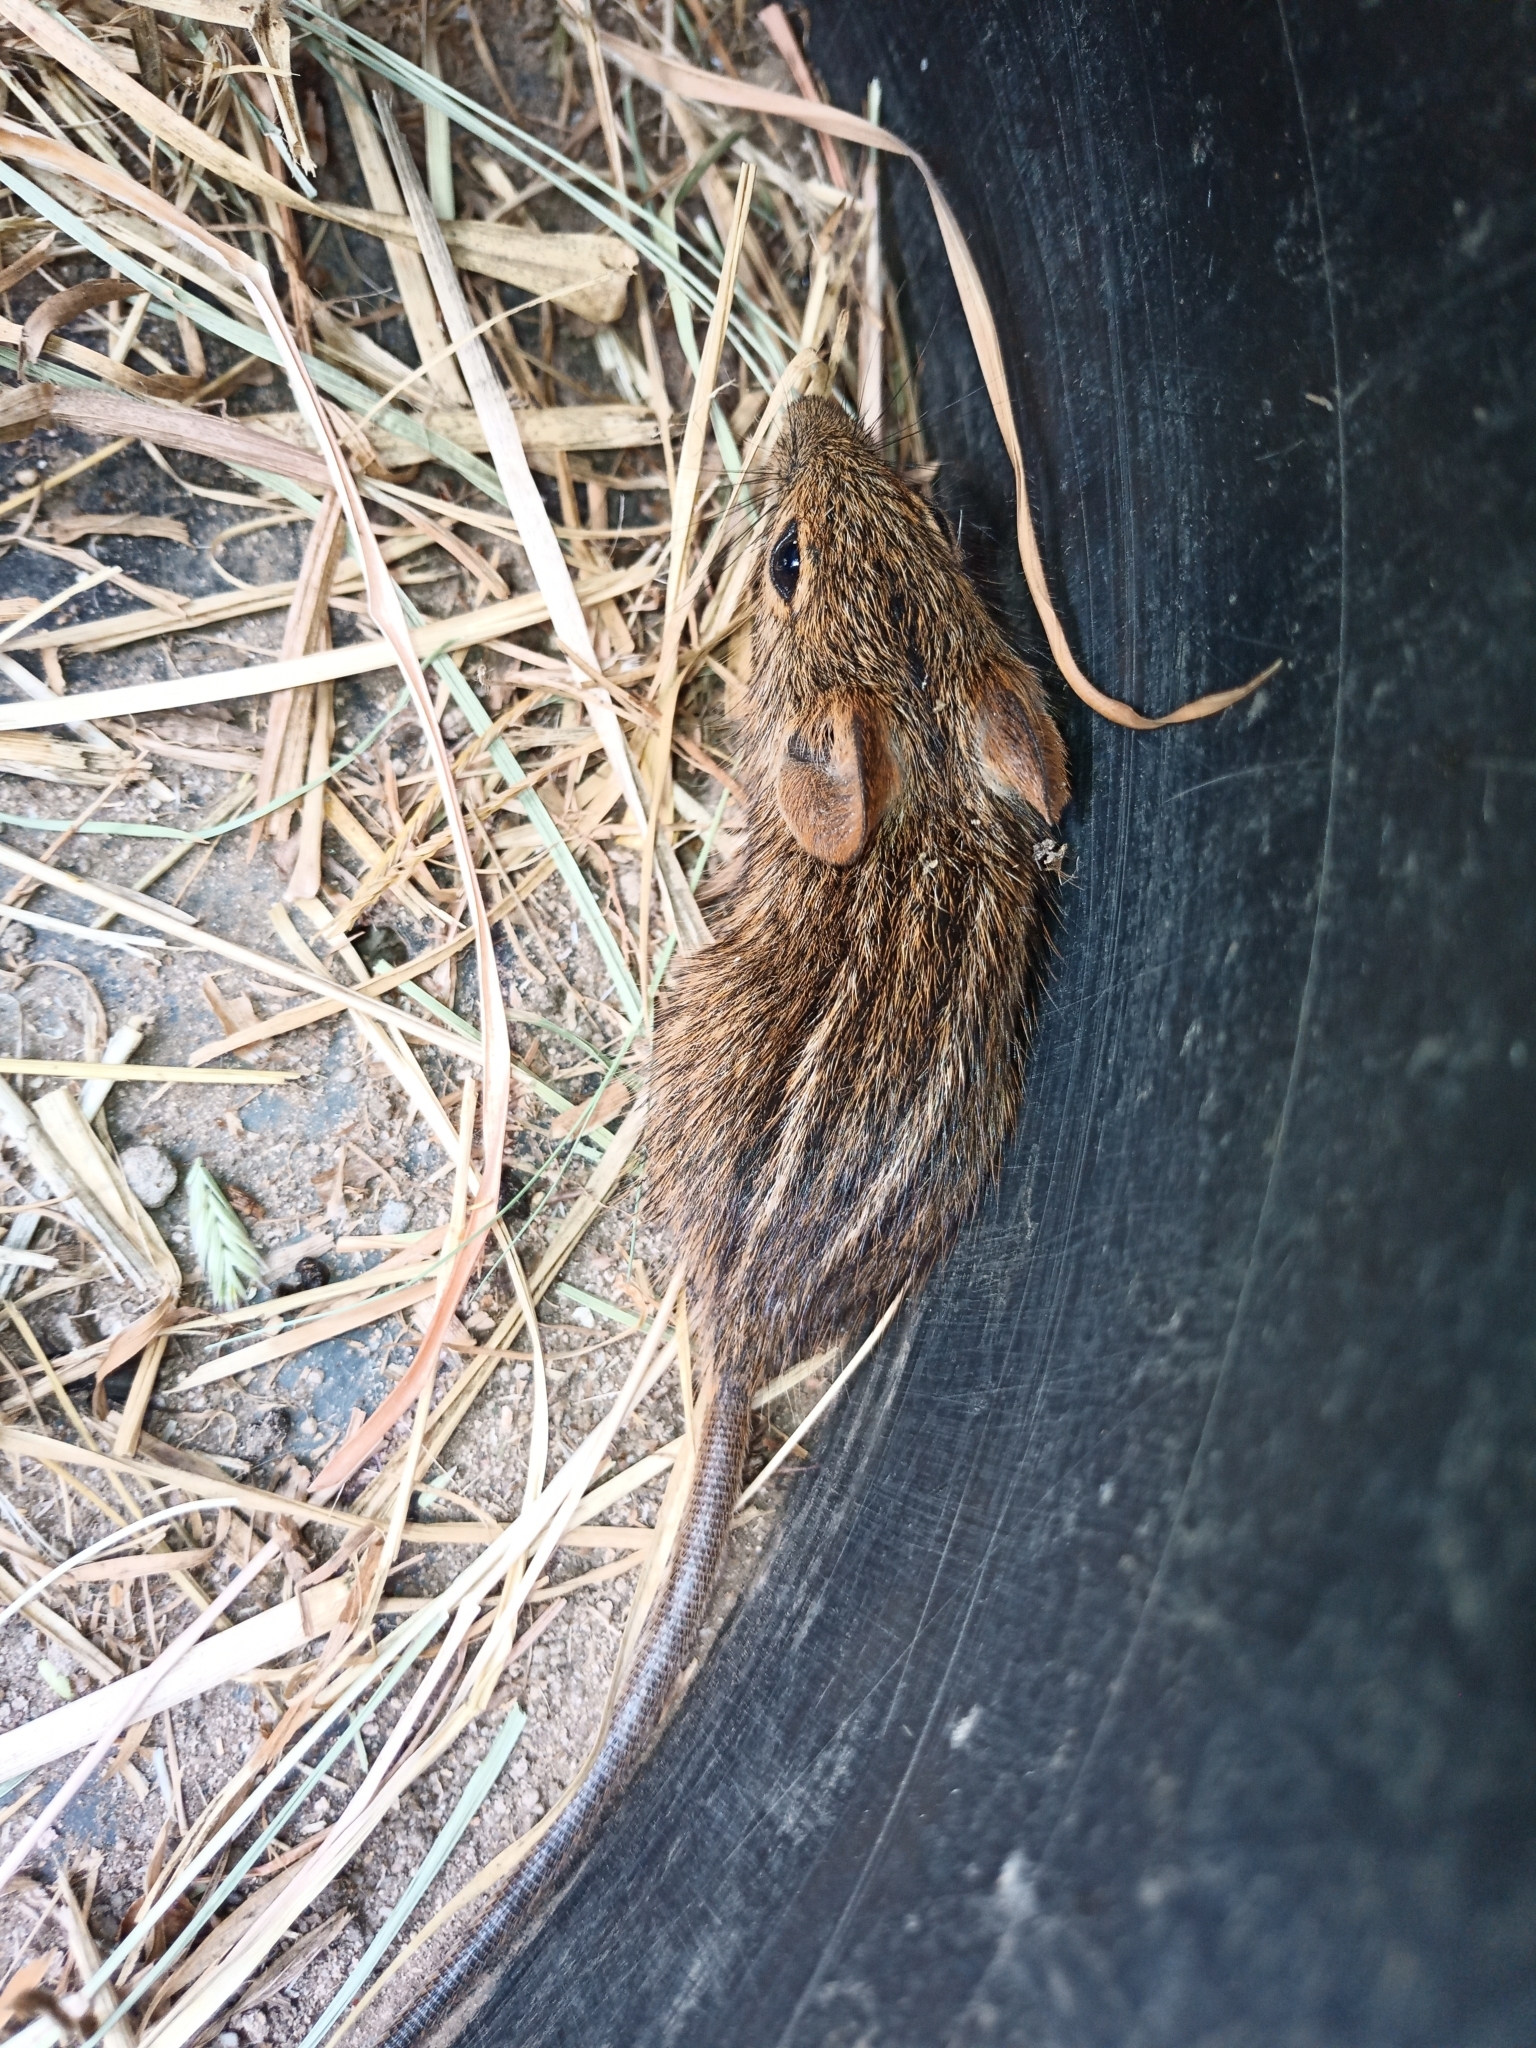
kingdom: Animalia
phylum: Chordata
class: Mammalia
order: Rodentia
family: Muridae
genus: Rhabdomys
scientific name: Rhabdomys pumilio
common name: Xeric four-striped grass rat
